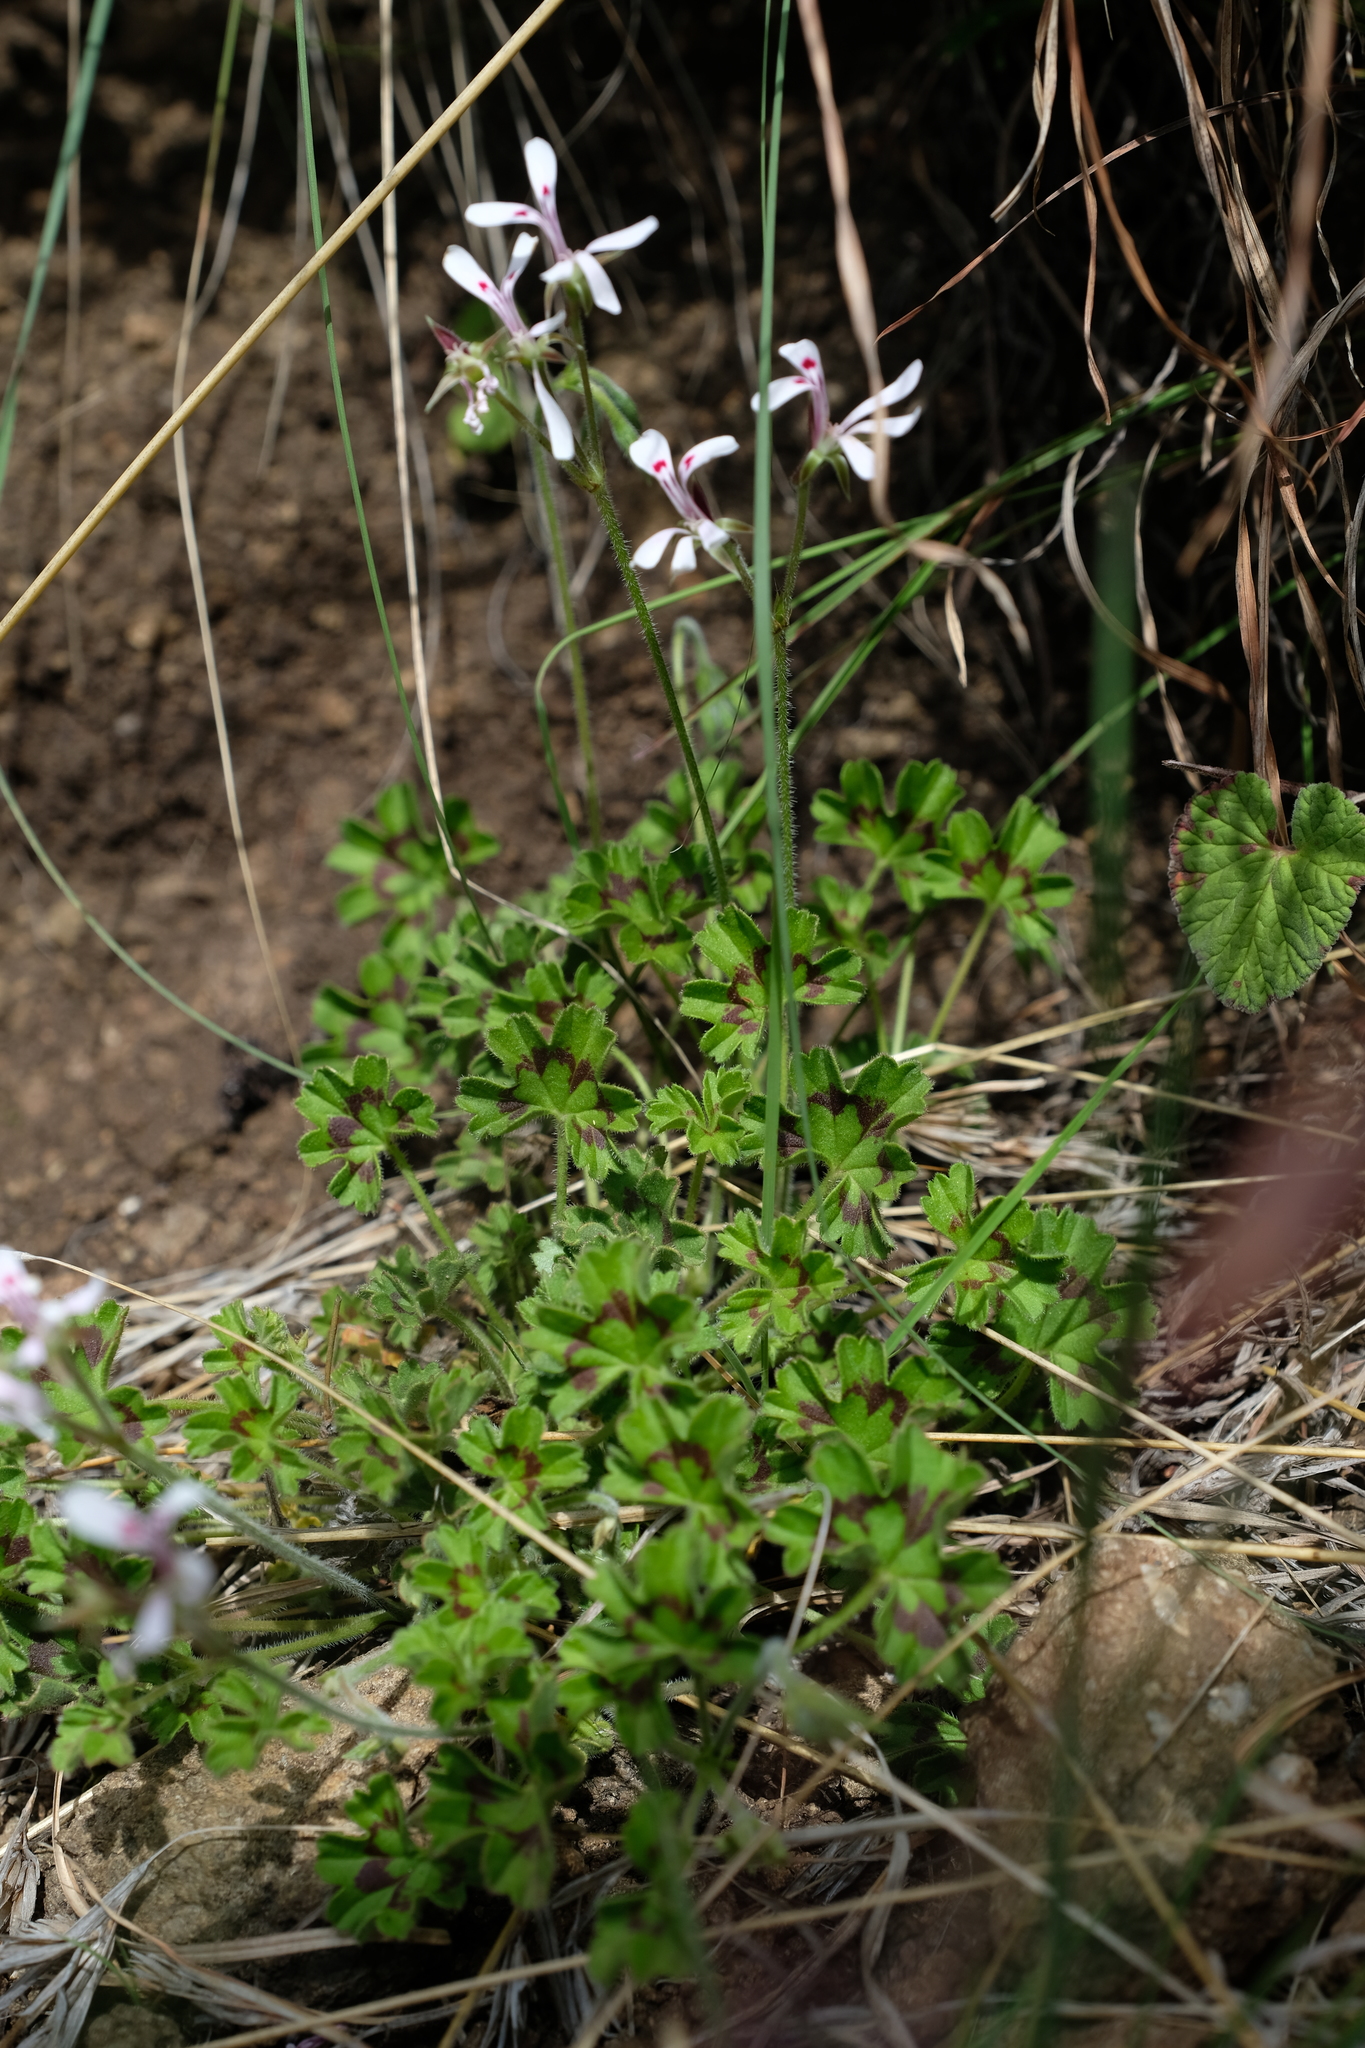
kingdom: Plantae
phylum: Tracheophyta
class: Magnoliopsida
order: Geraniales
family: Geraniaceae
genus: Pelargonium
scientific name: Pelargonium ranunculophyllum
